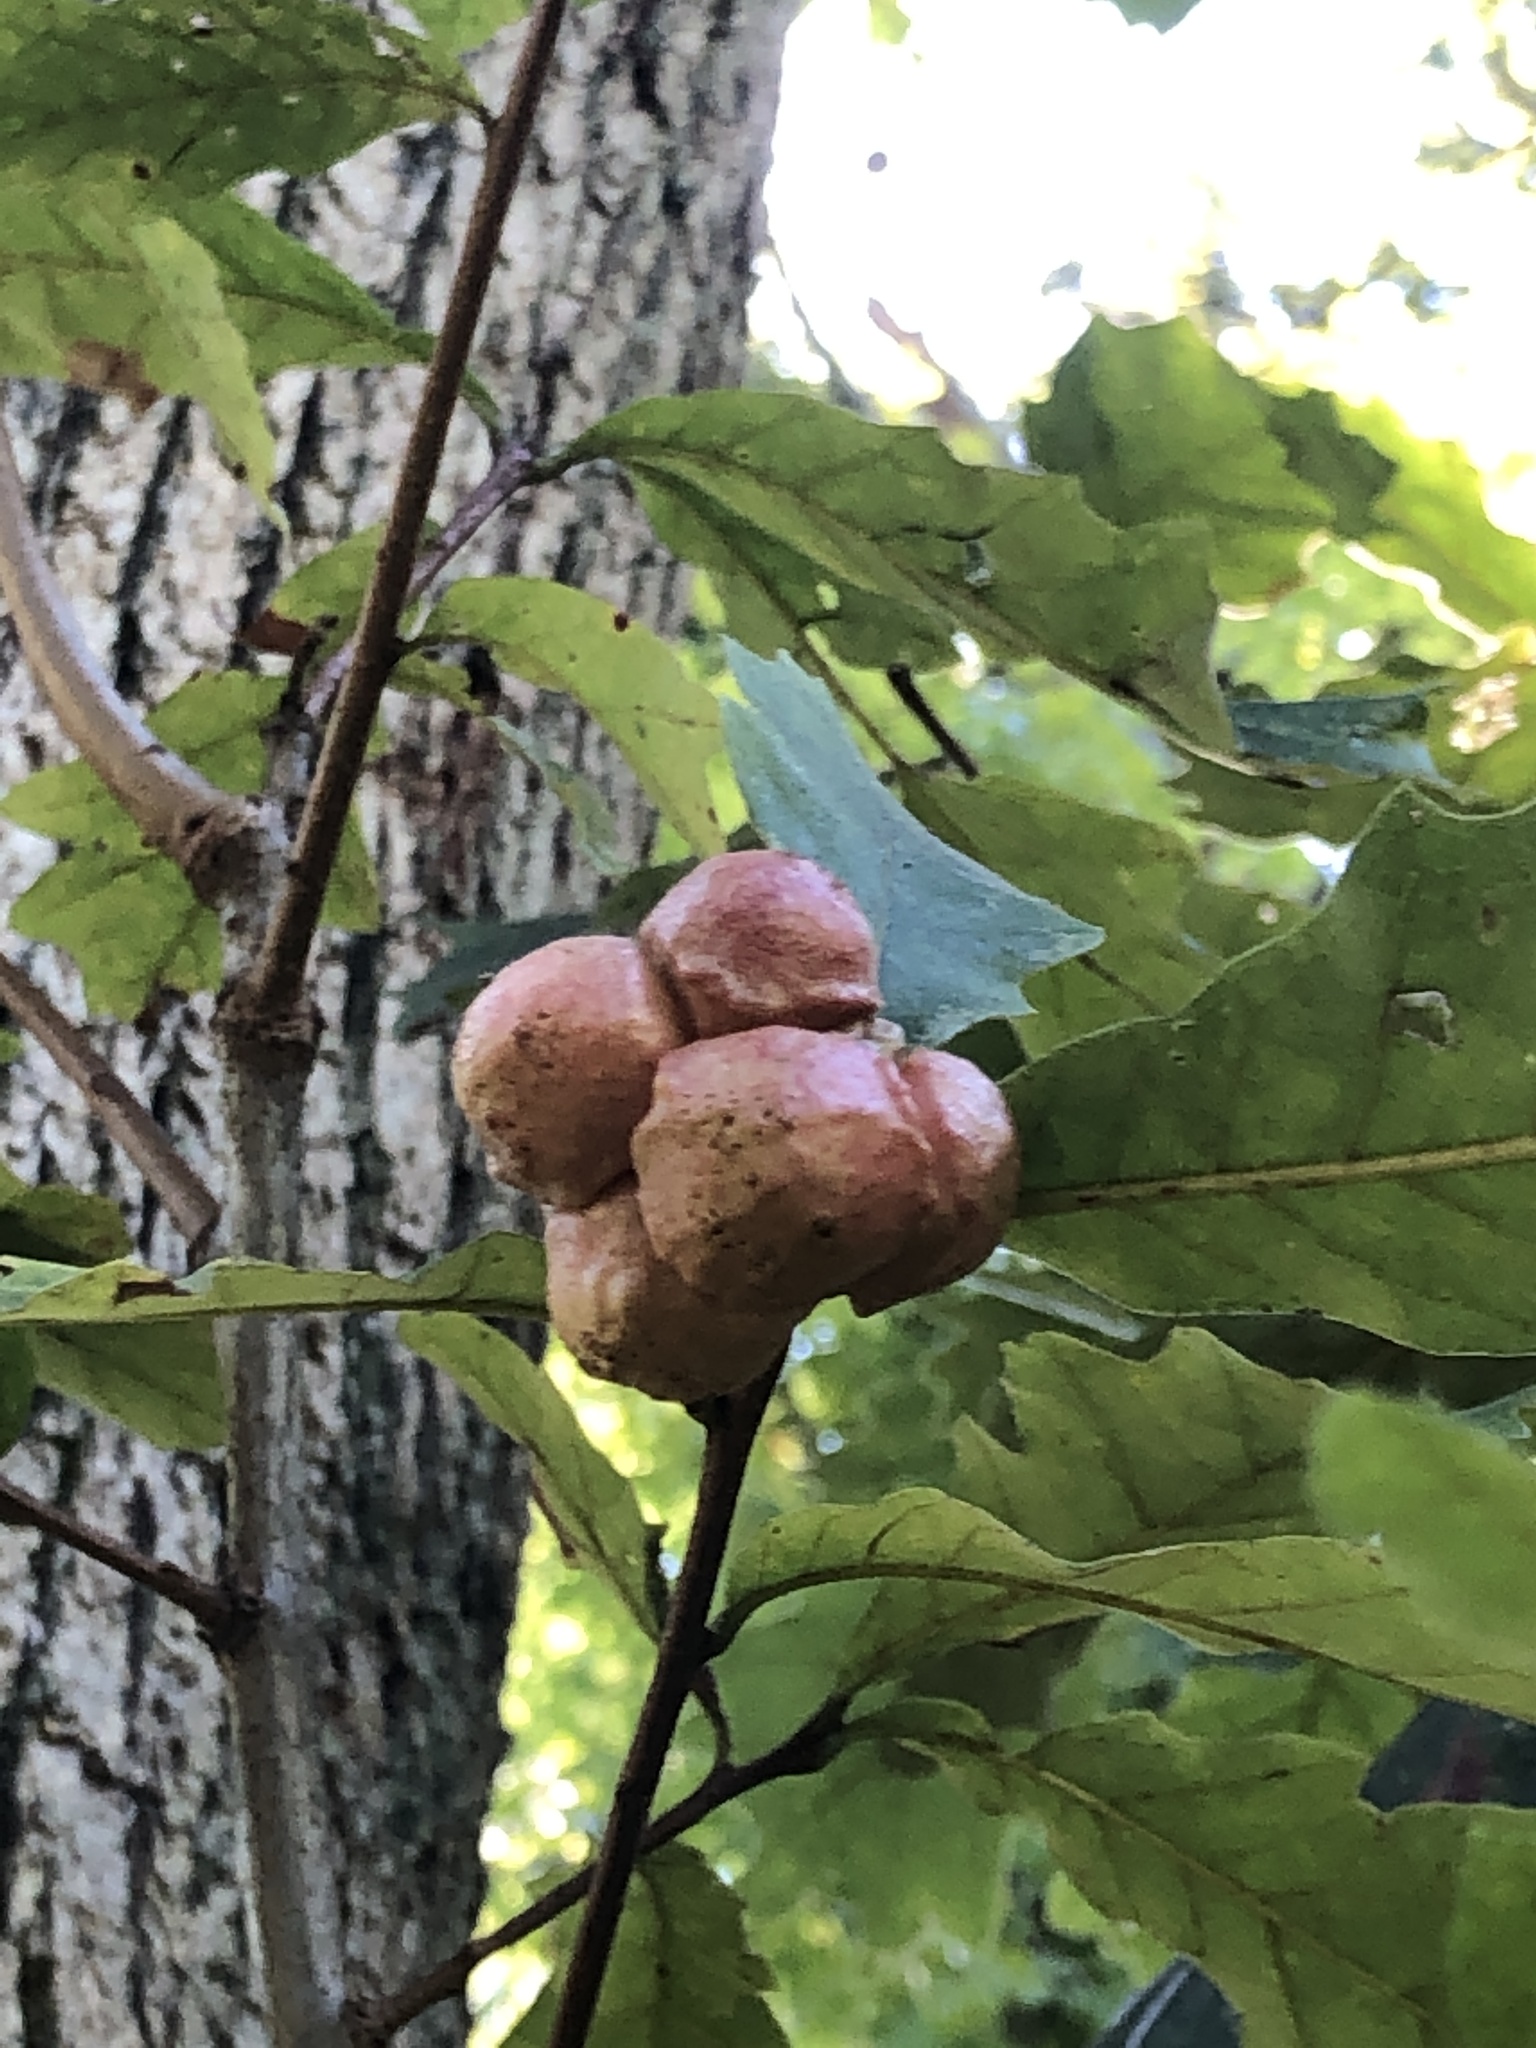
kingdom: Animalia
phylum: Arthropoda
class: Insecta
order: Hymenoptera
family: Cynipidae
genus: Andricus
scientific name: Andricus
